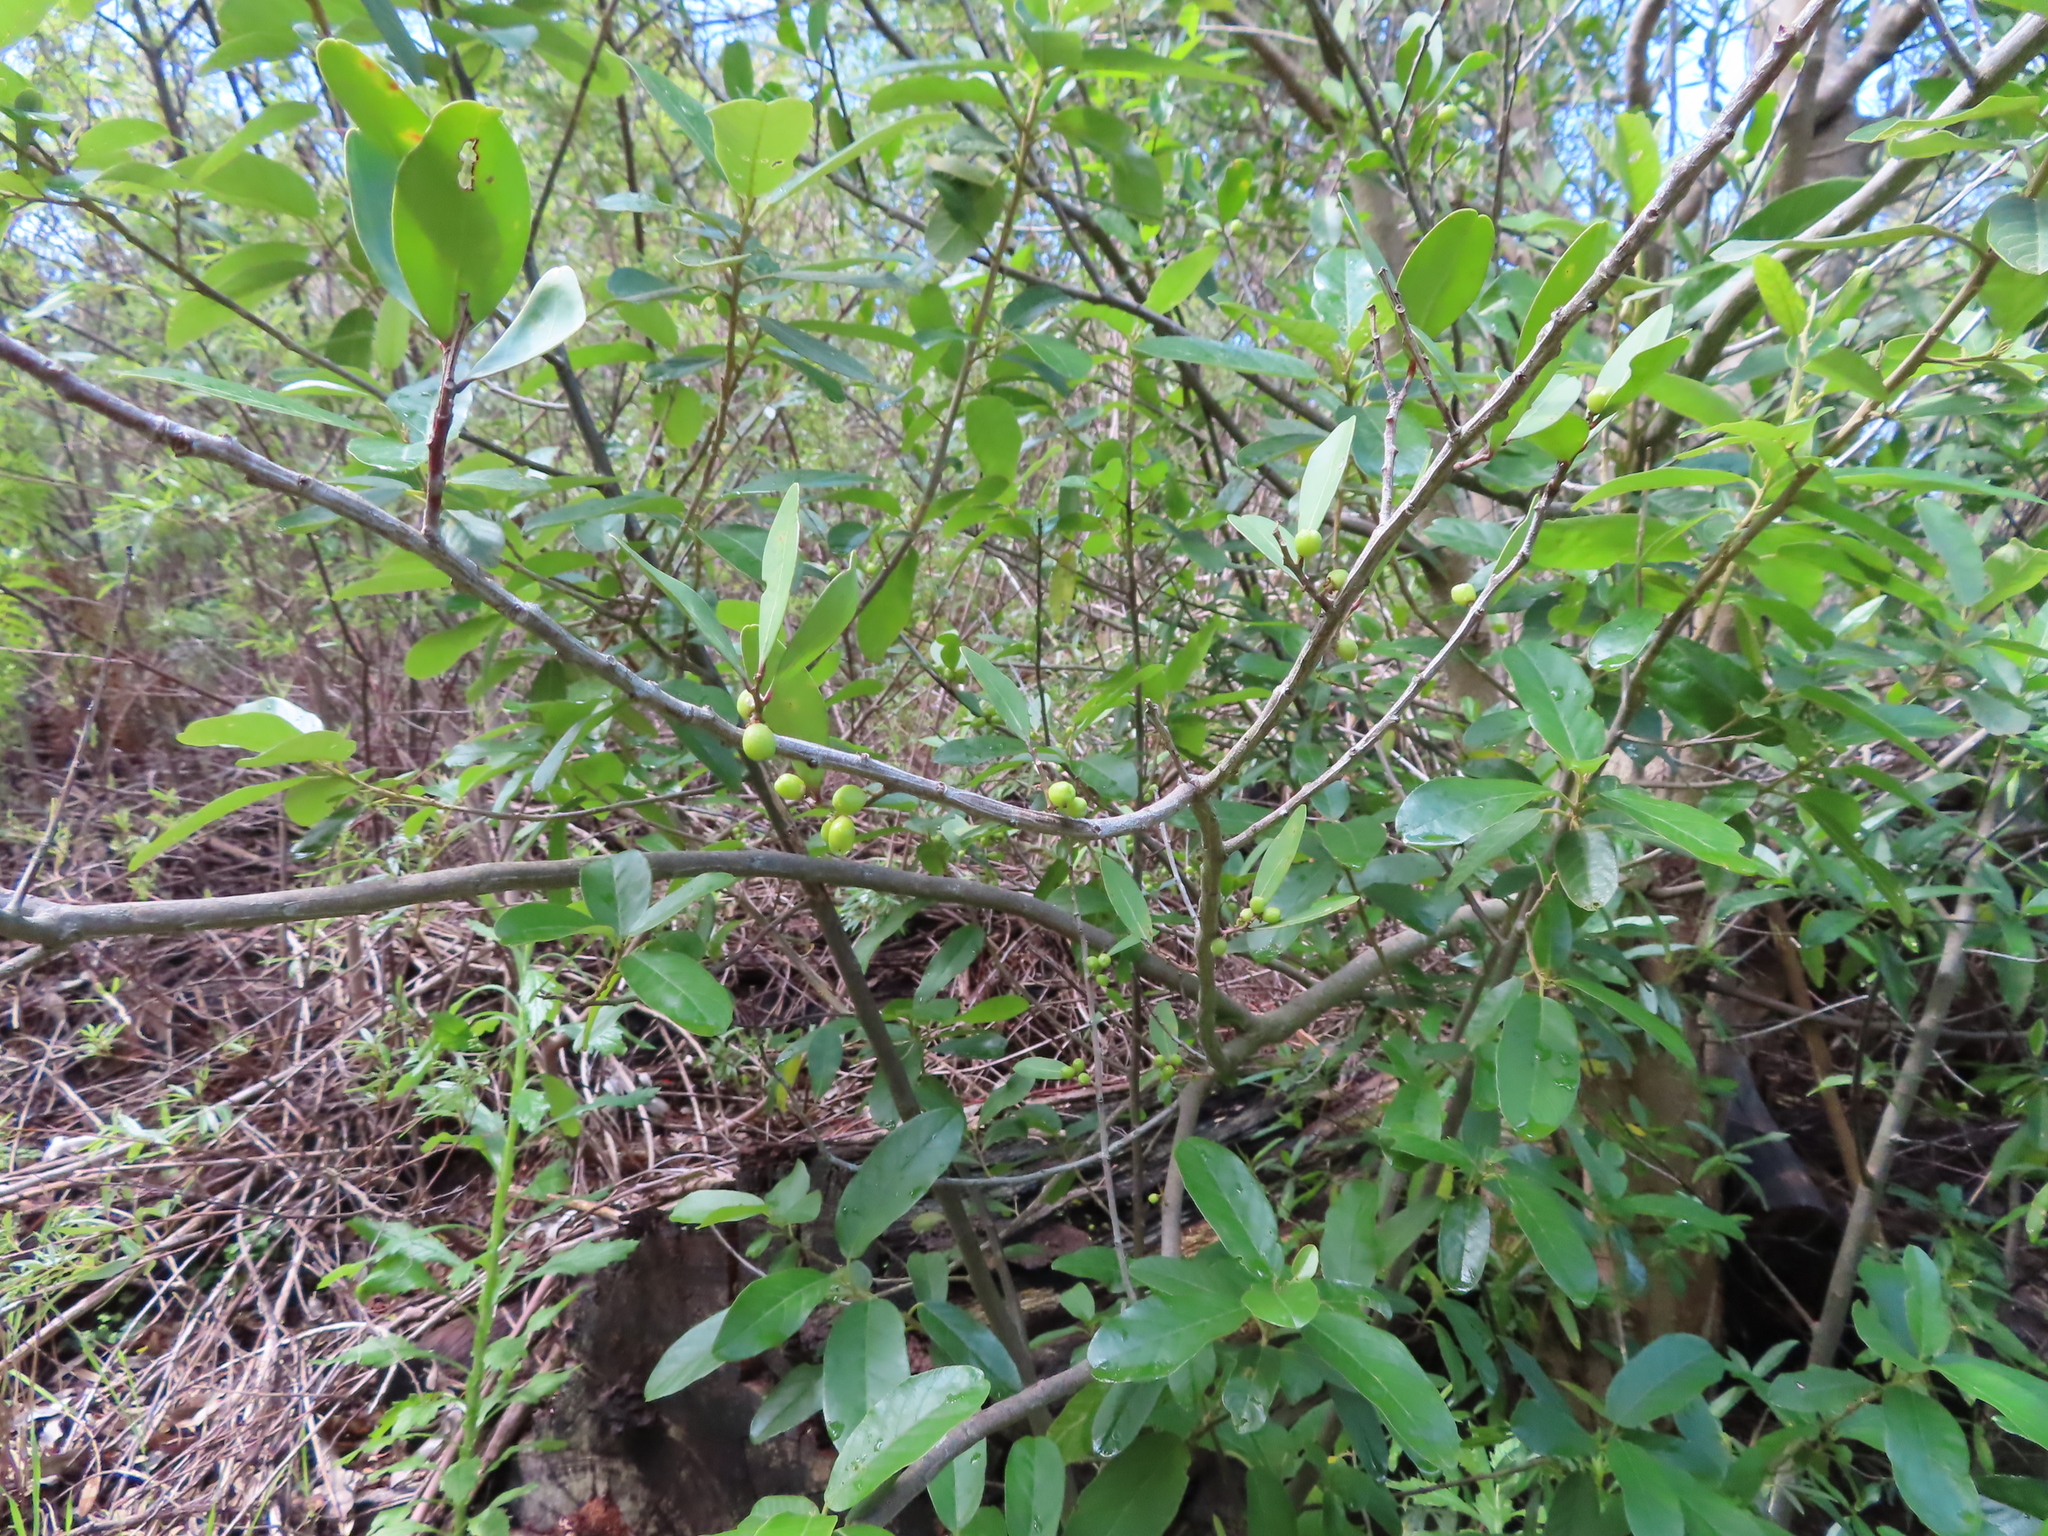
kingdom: Plantae
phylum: Tracheophyta
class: Magnoliopsida
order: Celastrales
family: Celastraceae
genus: Gymnosporia
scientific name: Gymnosporia laurina
